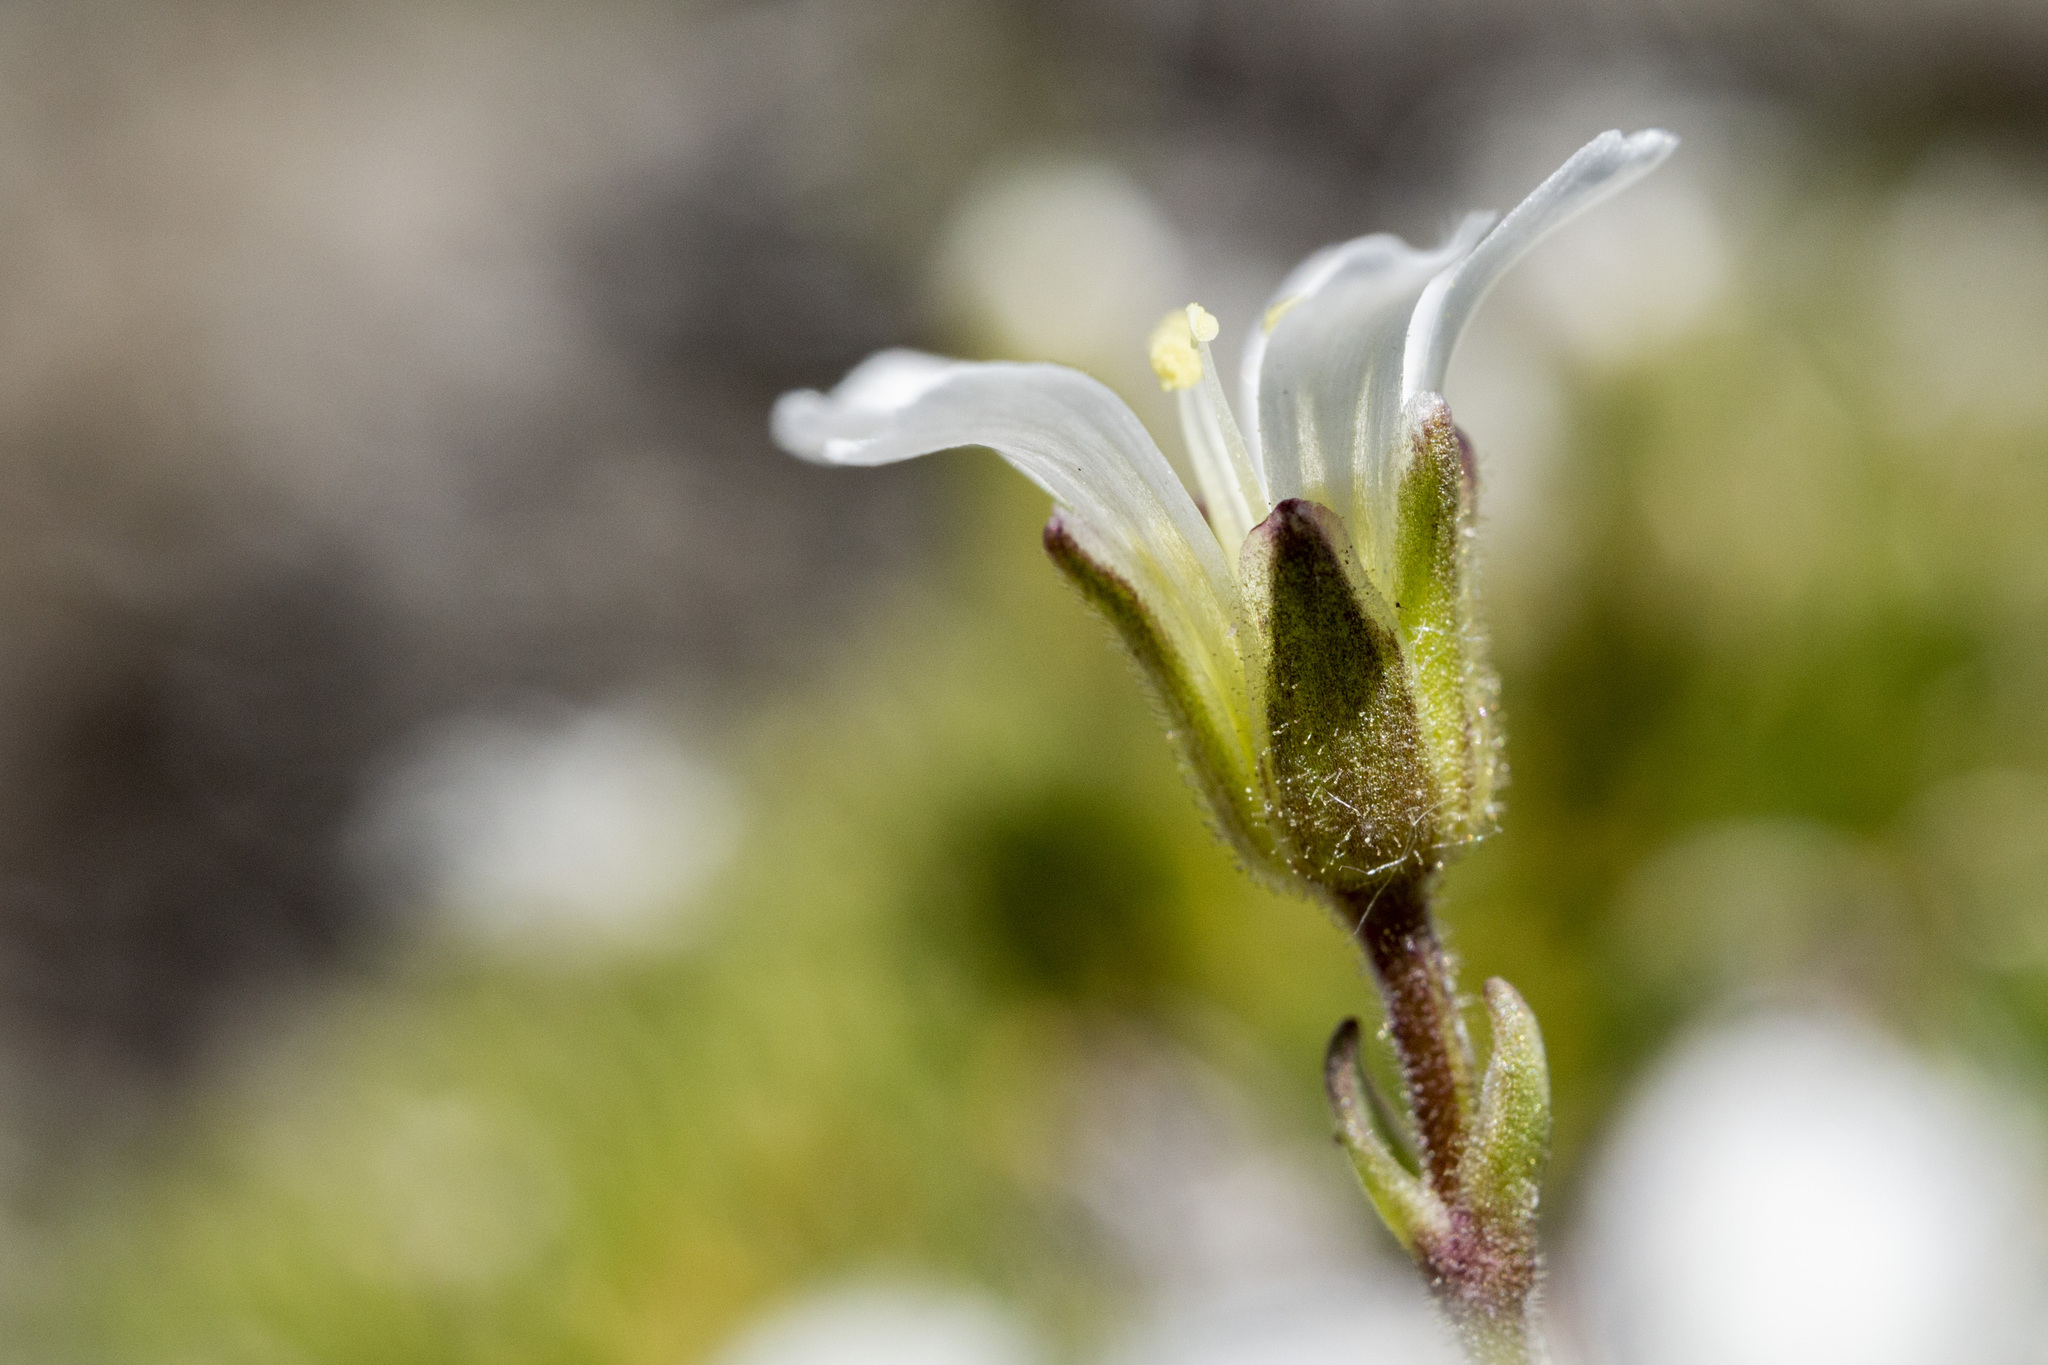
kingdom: Plantae
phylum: Tracheophyta
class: Magnoliopsida
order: Caryophyllales
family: Caryophyllaceae
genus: Cherleria
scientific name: Cherleria obtusiloba
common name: Alpine stitchwort
